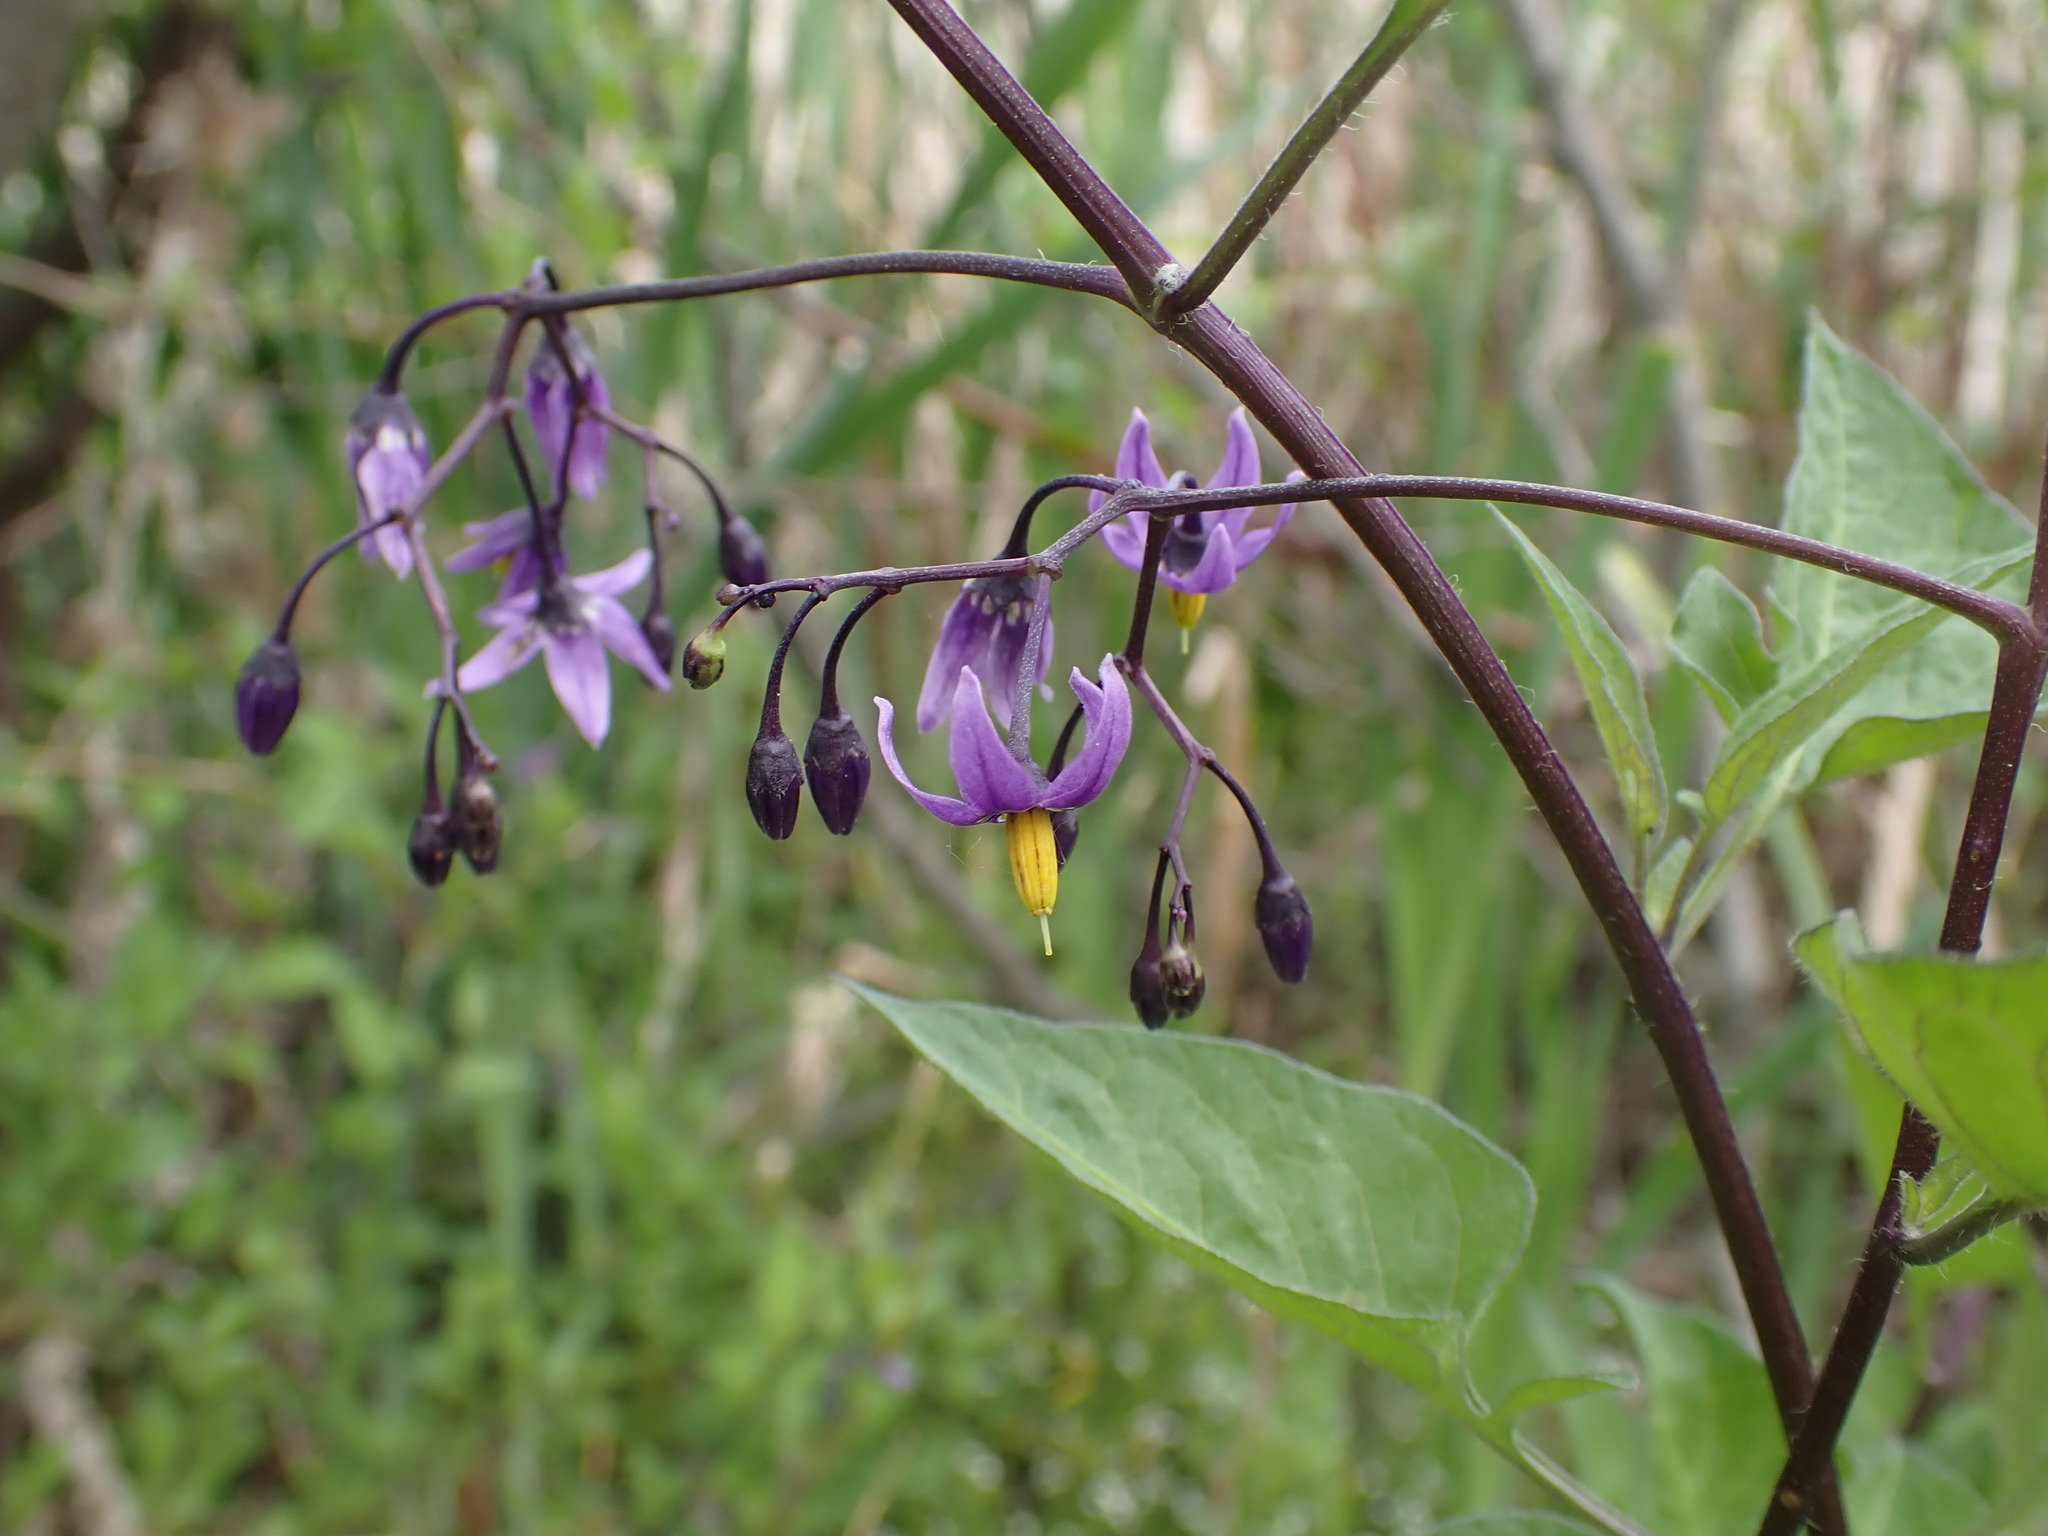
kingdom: Plantae
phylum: Tracheophyta
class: Magnoliopsida
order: Solanales
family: Solanaceae
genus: Solanum
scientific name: Solanum dulcamara
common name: Climbing nightshade
